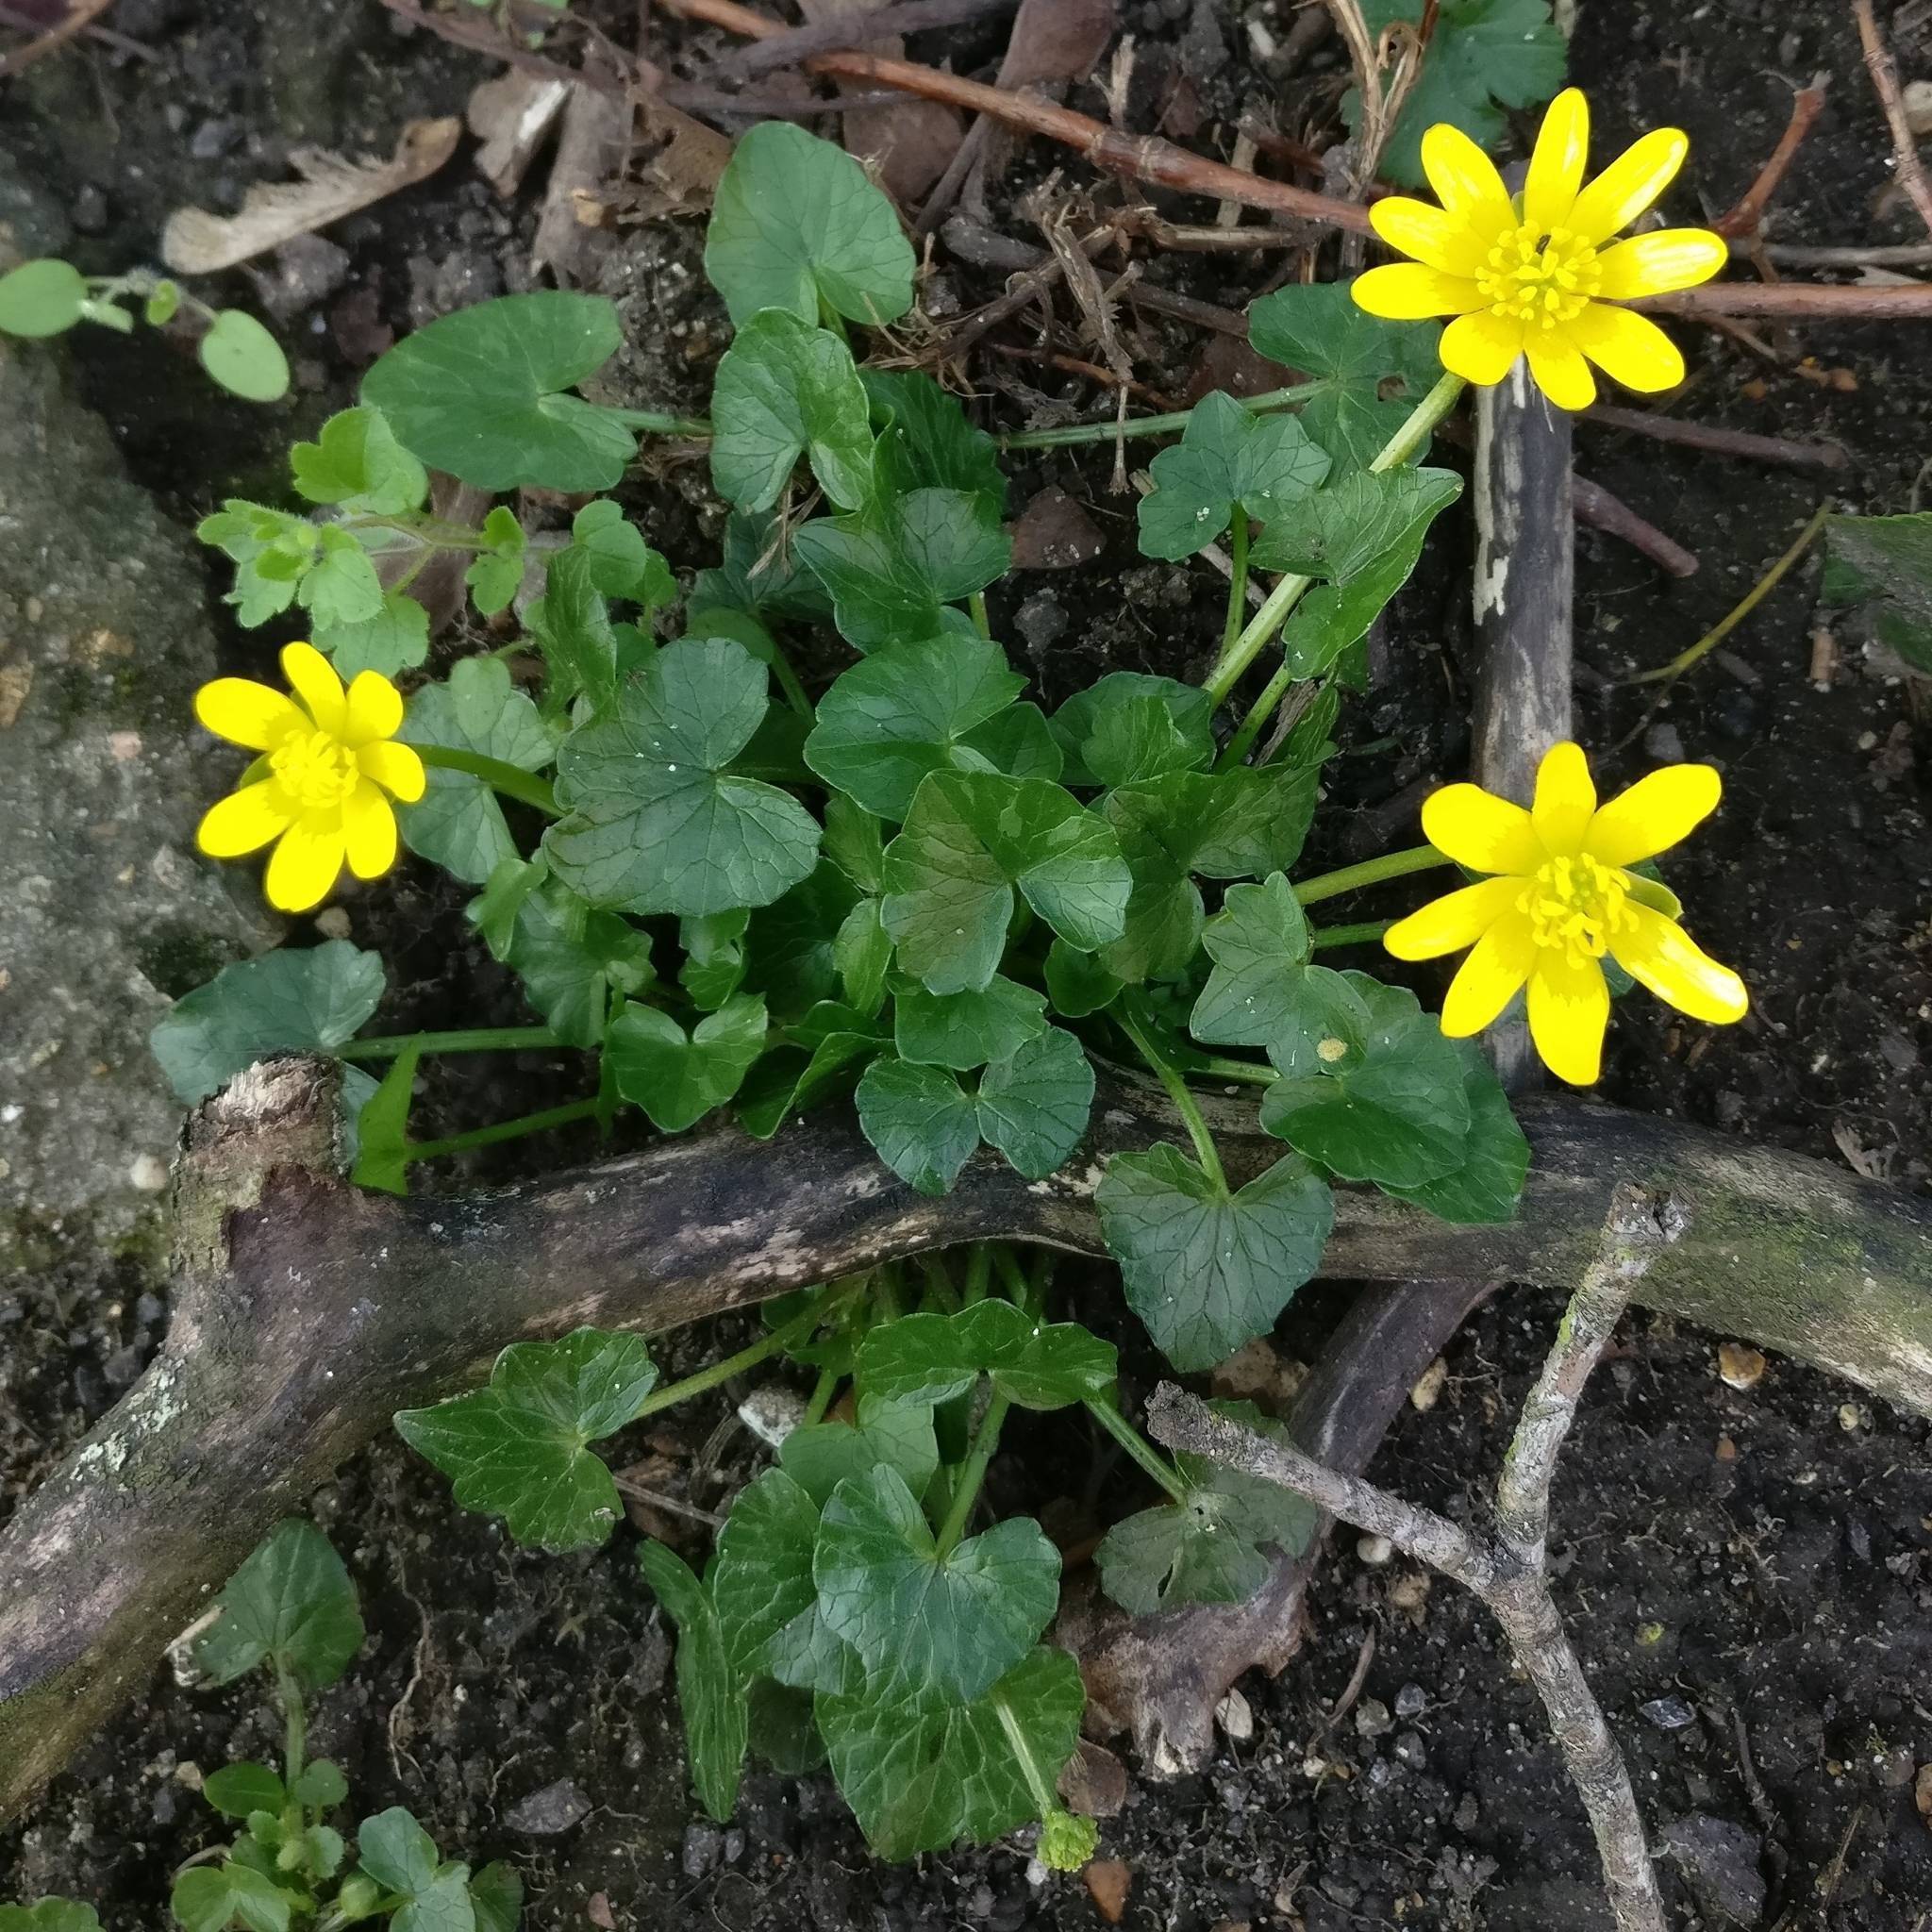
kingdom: Plantae
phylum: Tracheophyta
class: Magnoliopsida
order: Ranunculales
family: Ranunculaceae
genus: Ficaria
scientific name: Ficaria verna
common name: Lesser celandine
